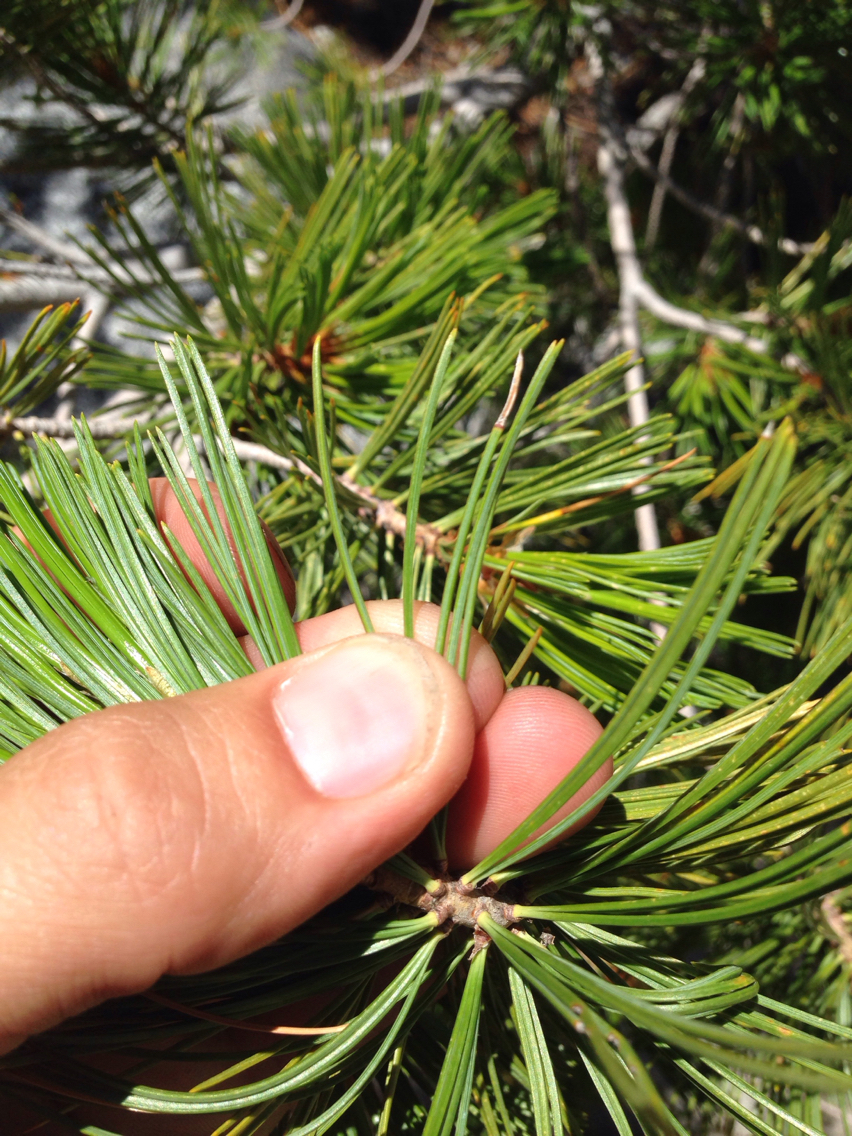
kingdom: Plantae
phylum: Tracheophyta
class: Pinopsida
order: Pinales
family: Pinaceae
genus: Pinus
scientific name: Pinus monticola
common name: Western white pine
